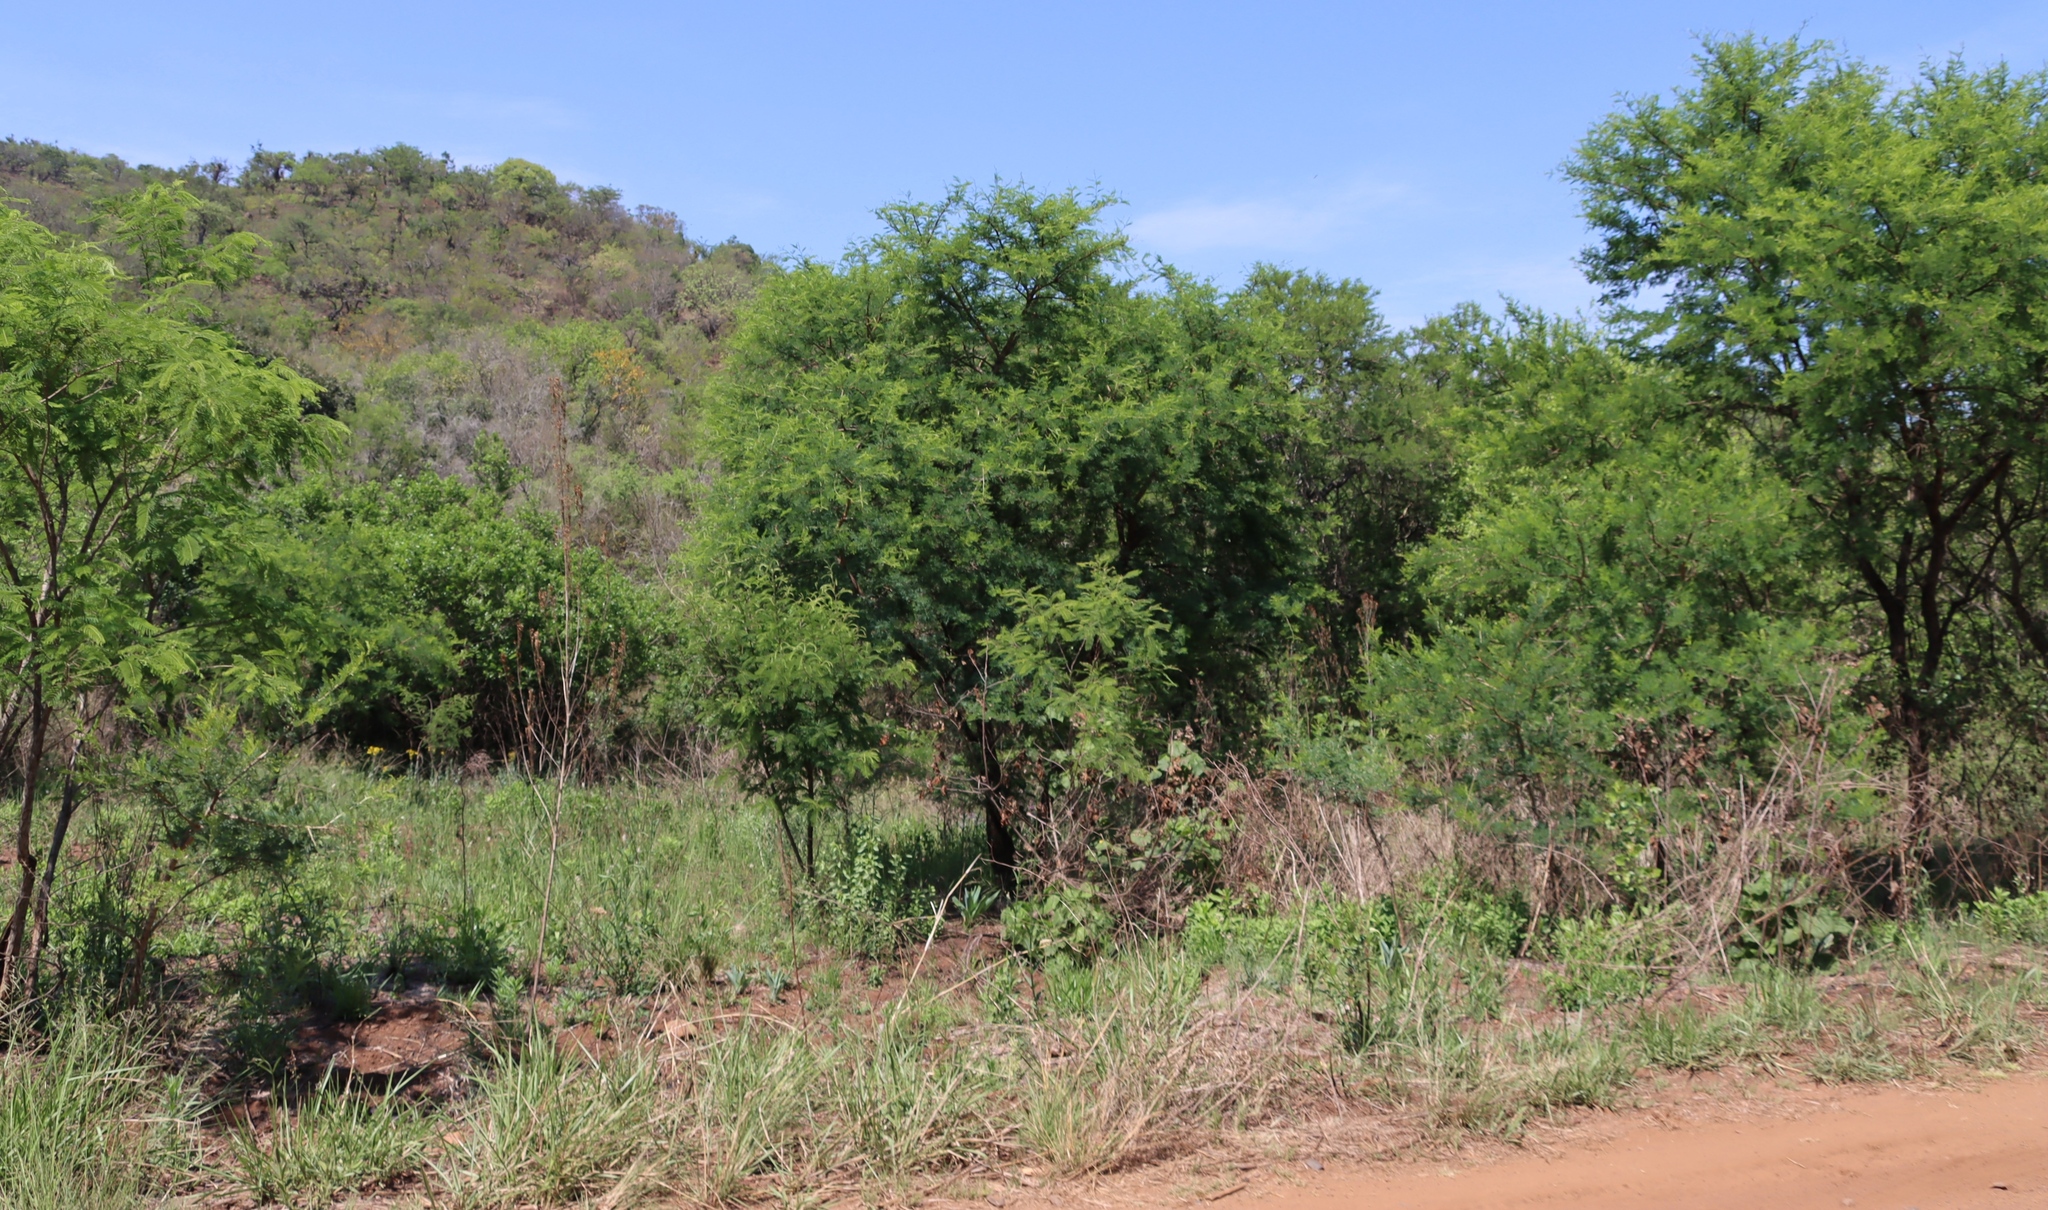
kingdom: Plantae
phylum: Tracheophyta
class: Magnoliopsida
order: Fabales
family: Fabaceae
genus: Vachellia
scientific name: Vachellia karroo
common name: Sweet thorn
